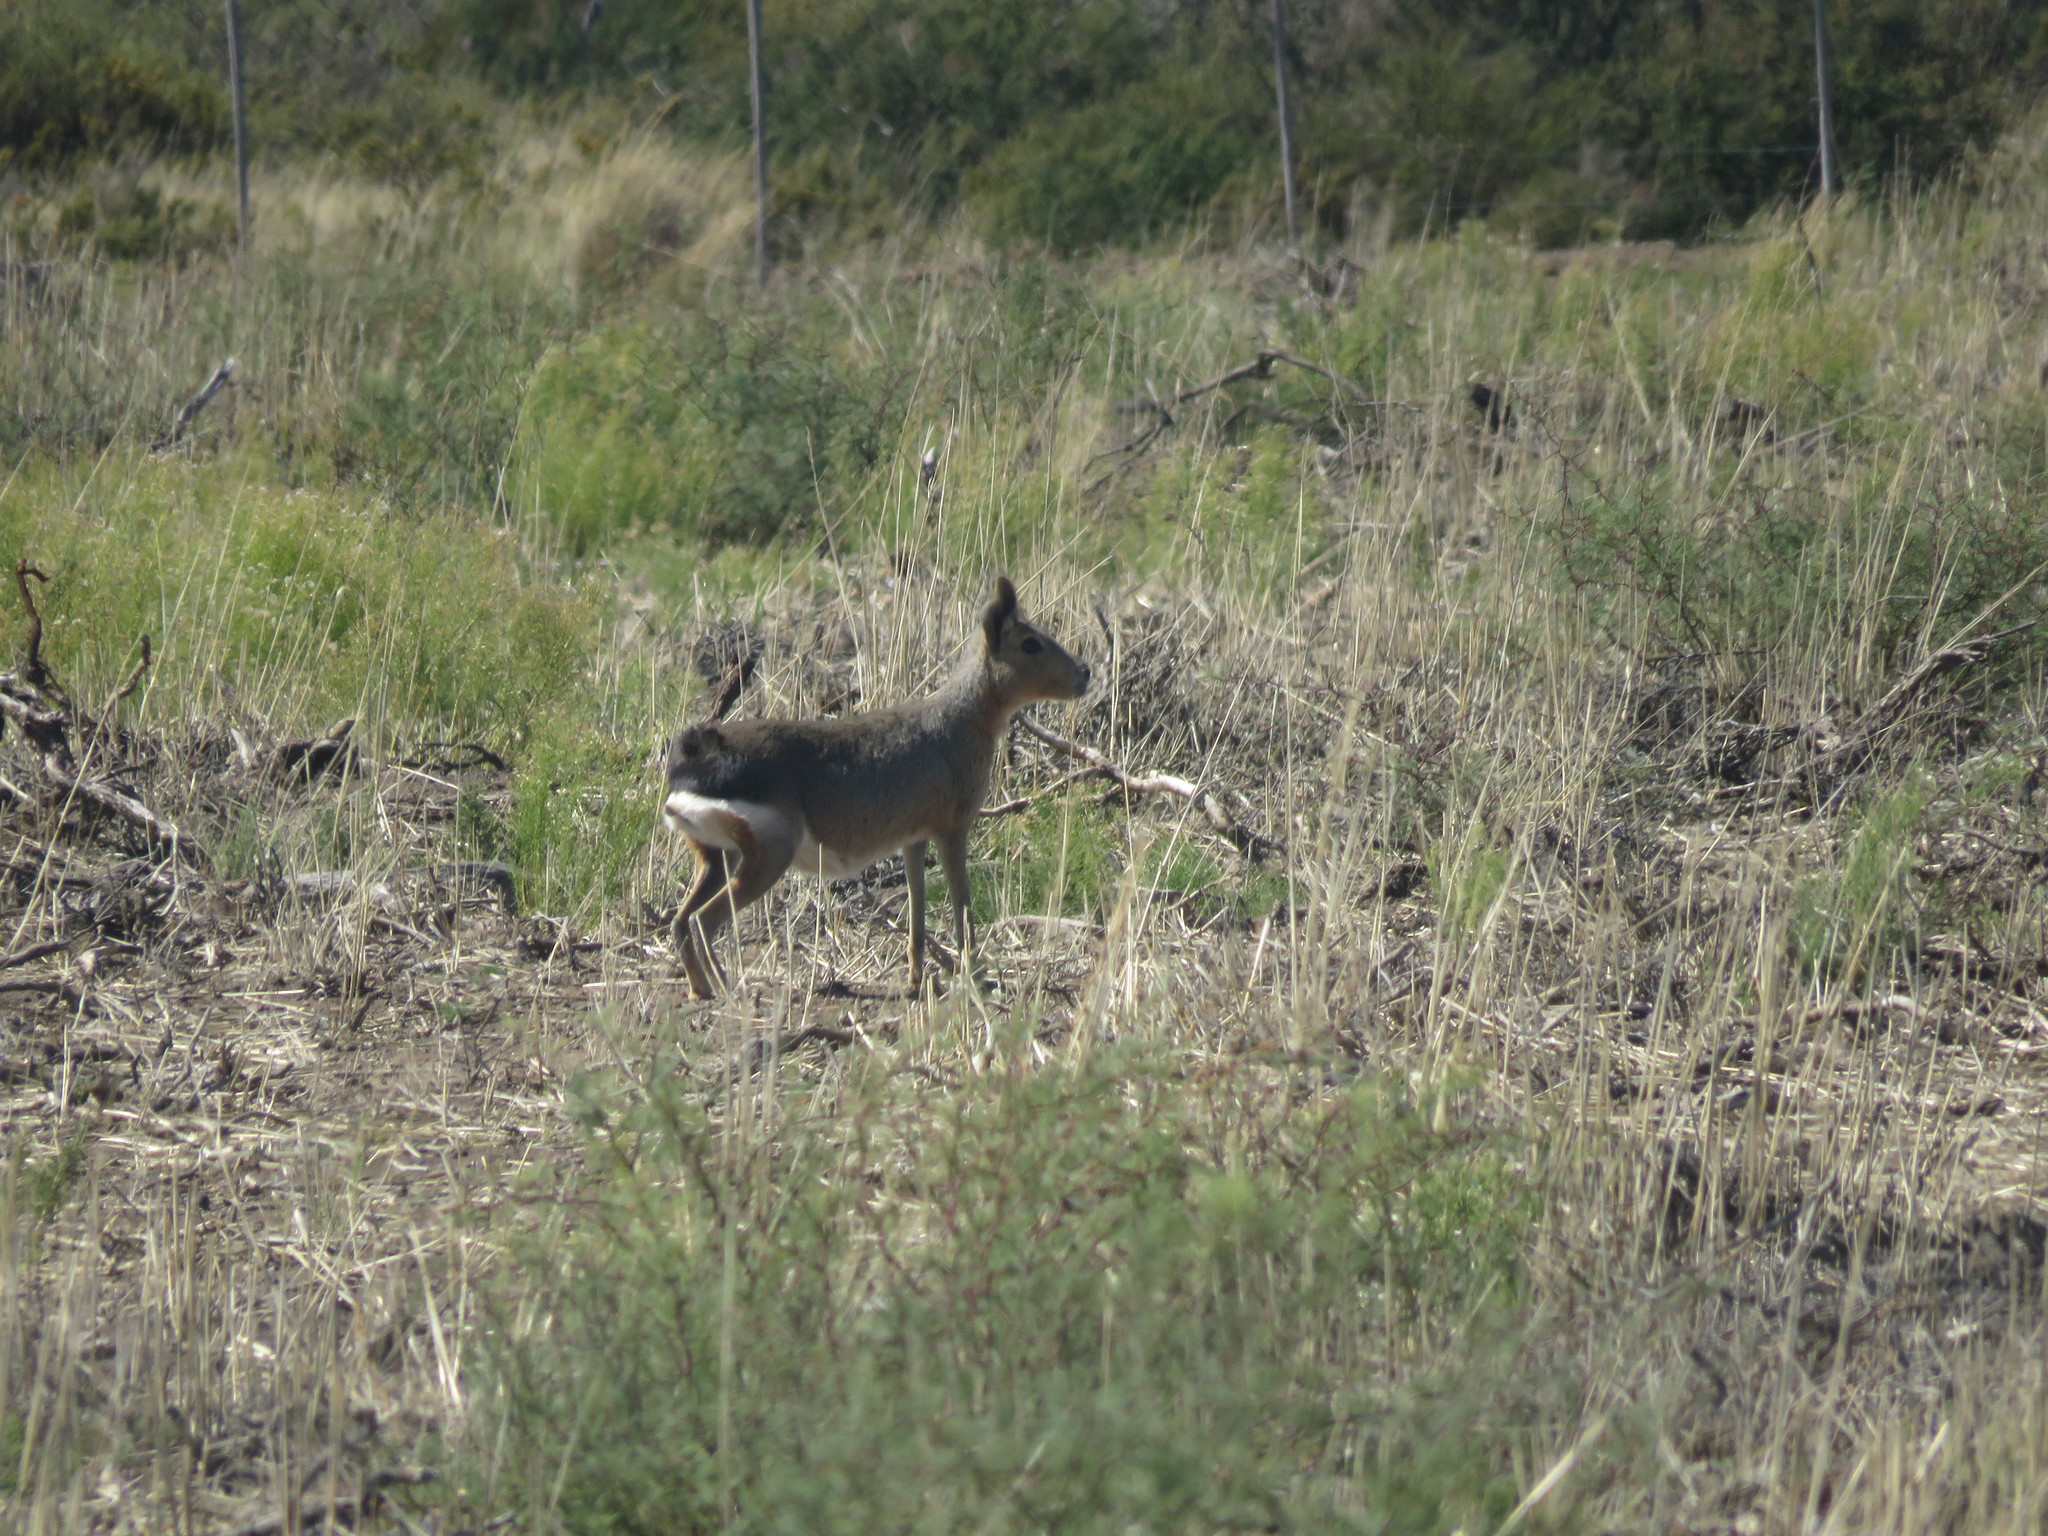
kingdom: Animalia
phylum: Chordata
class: Mammalia
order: Rodentia
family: Caviidae
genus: Dolichotis
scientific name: Dolichotis patagonum
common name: Patagonian mara
